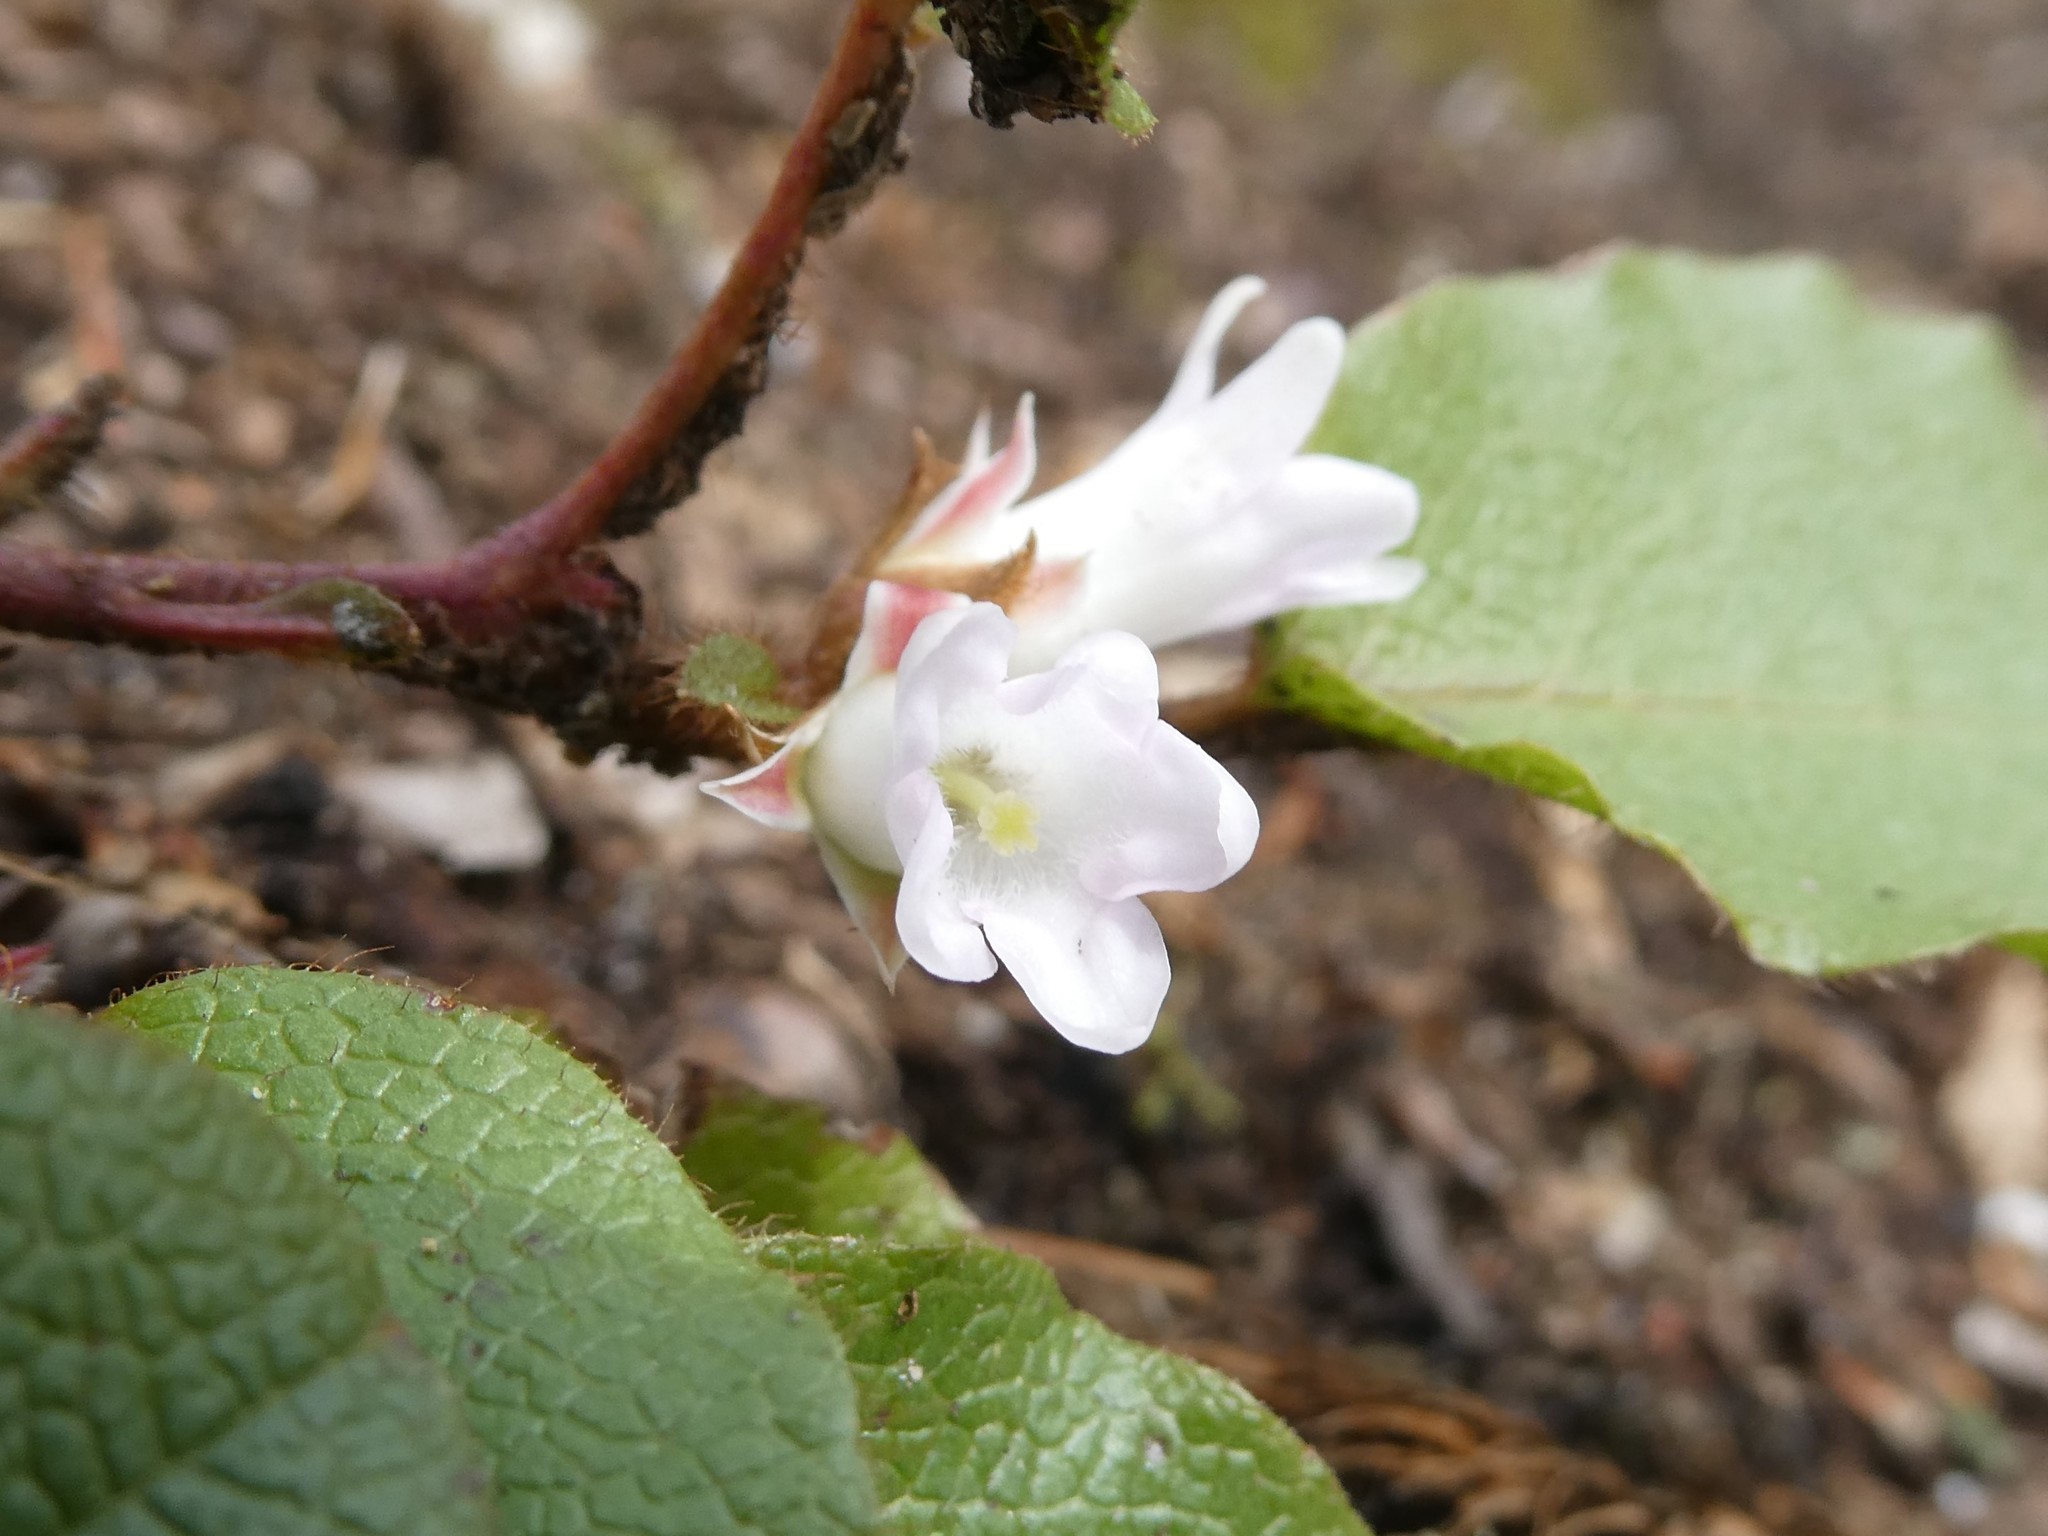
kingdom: Plantae
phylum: Tracheophyta
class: Magnoliopsida
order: Ericales
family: Ericaceae
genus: Epigaea
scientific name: Epigaea repens
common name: Gravelroot
